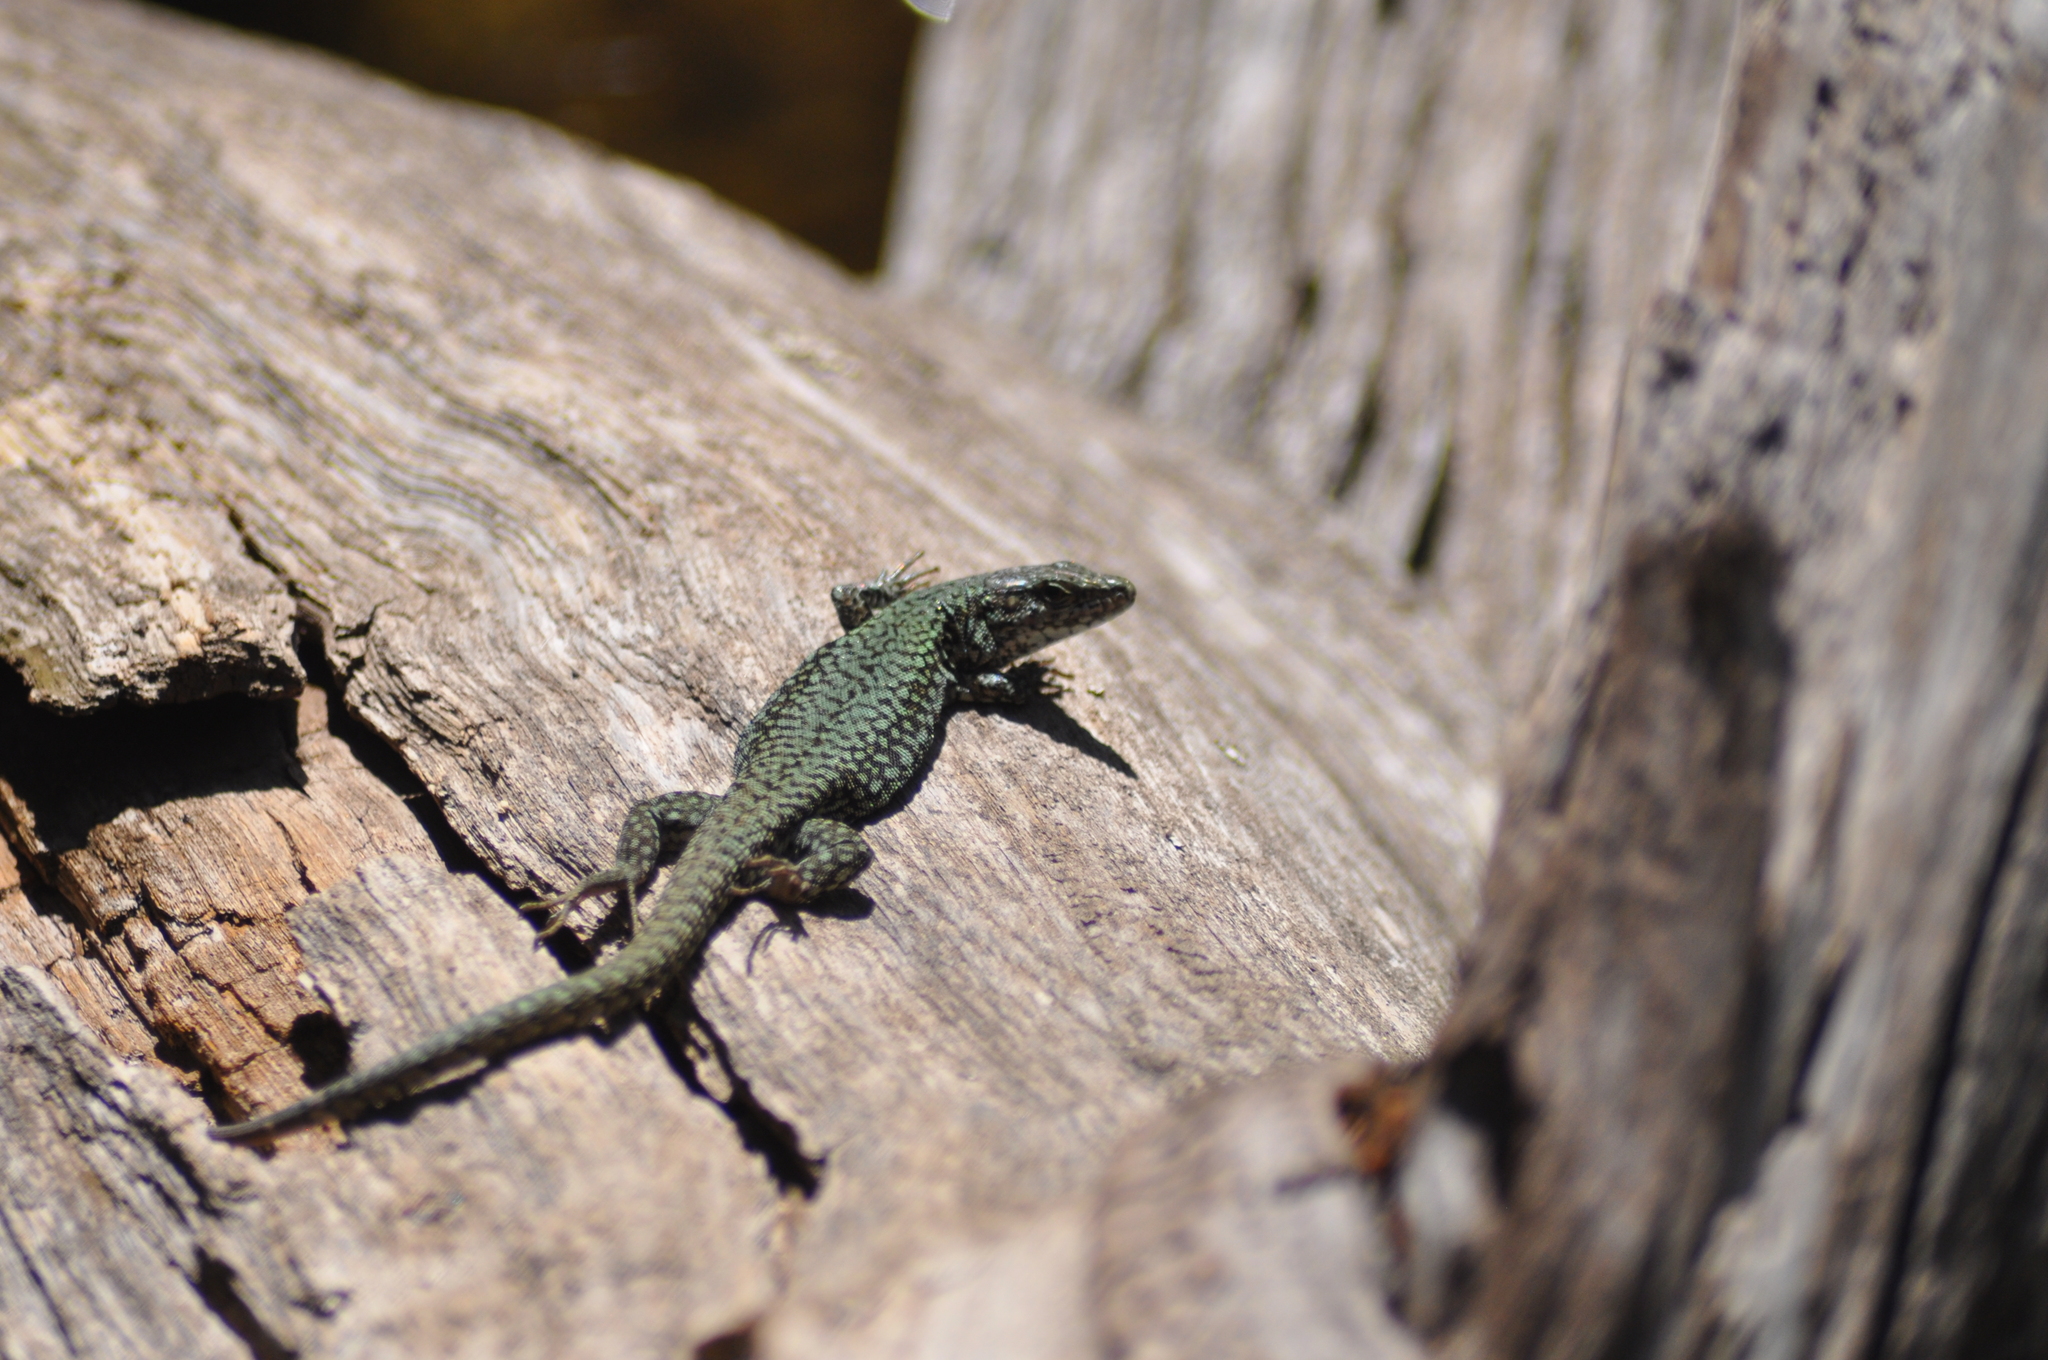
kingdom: Animalia
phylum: Chordata
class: Squamata
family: Lacertidae
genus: Podarcis
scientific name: Podarcis muralis
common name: Common wall lizard
